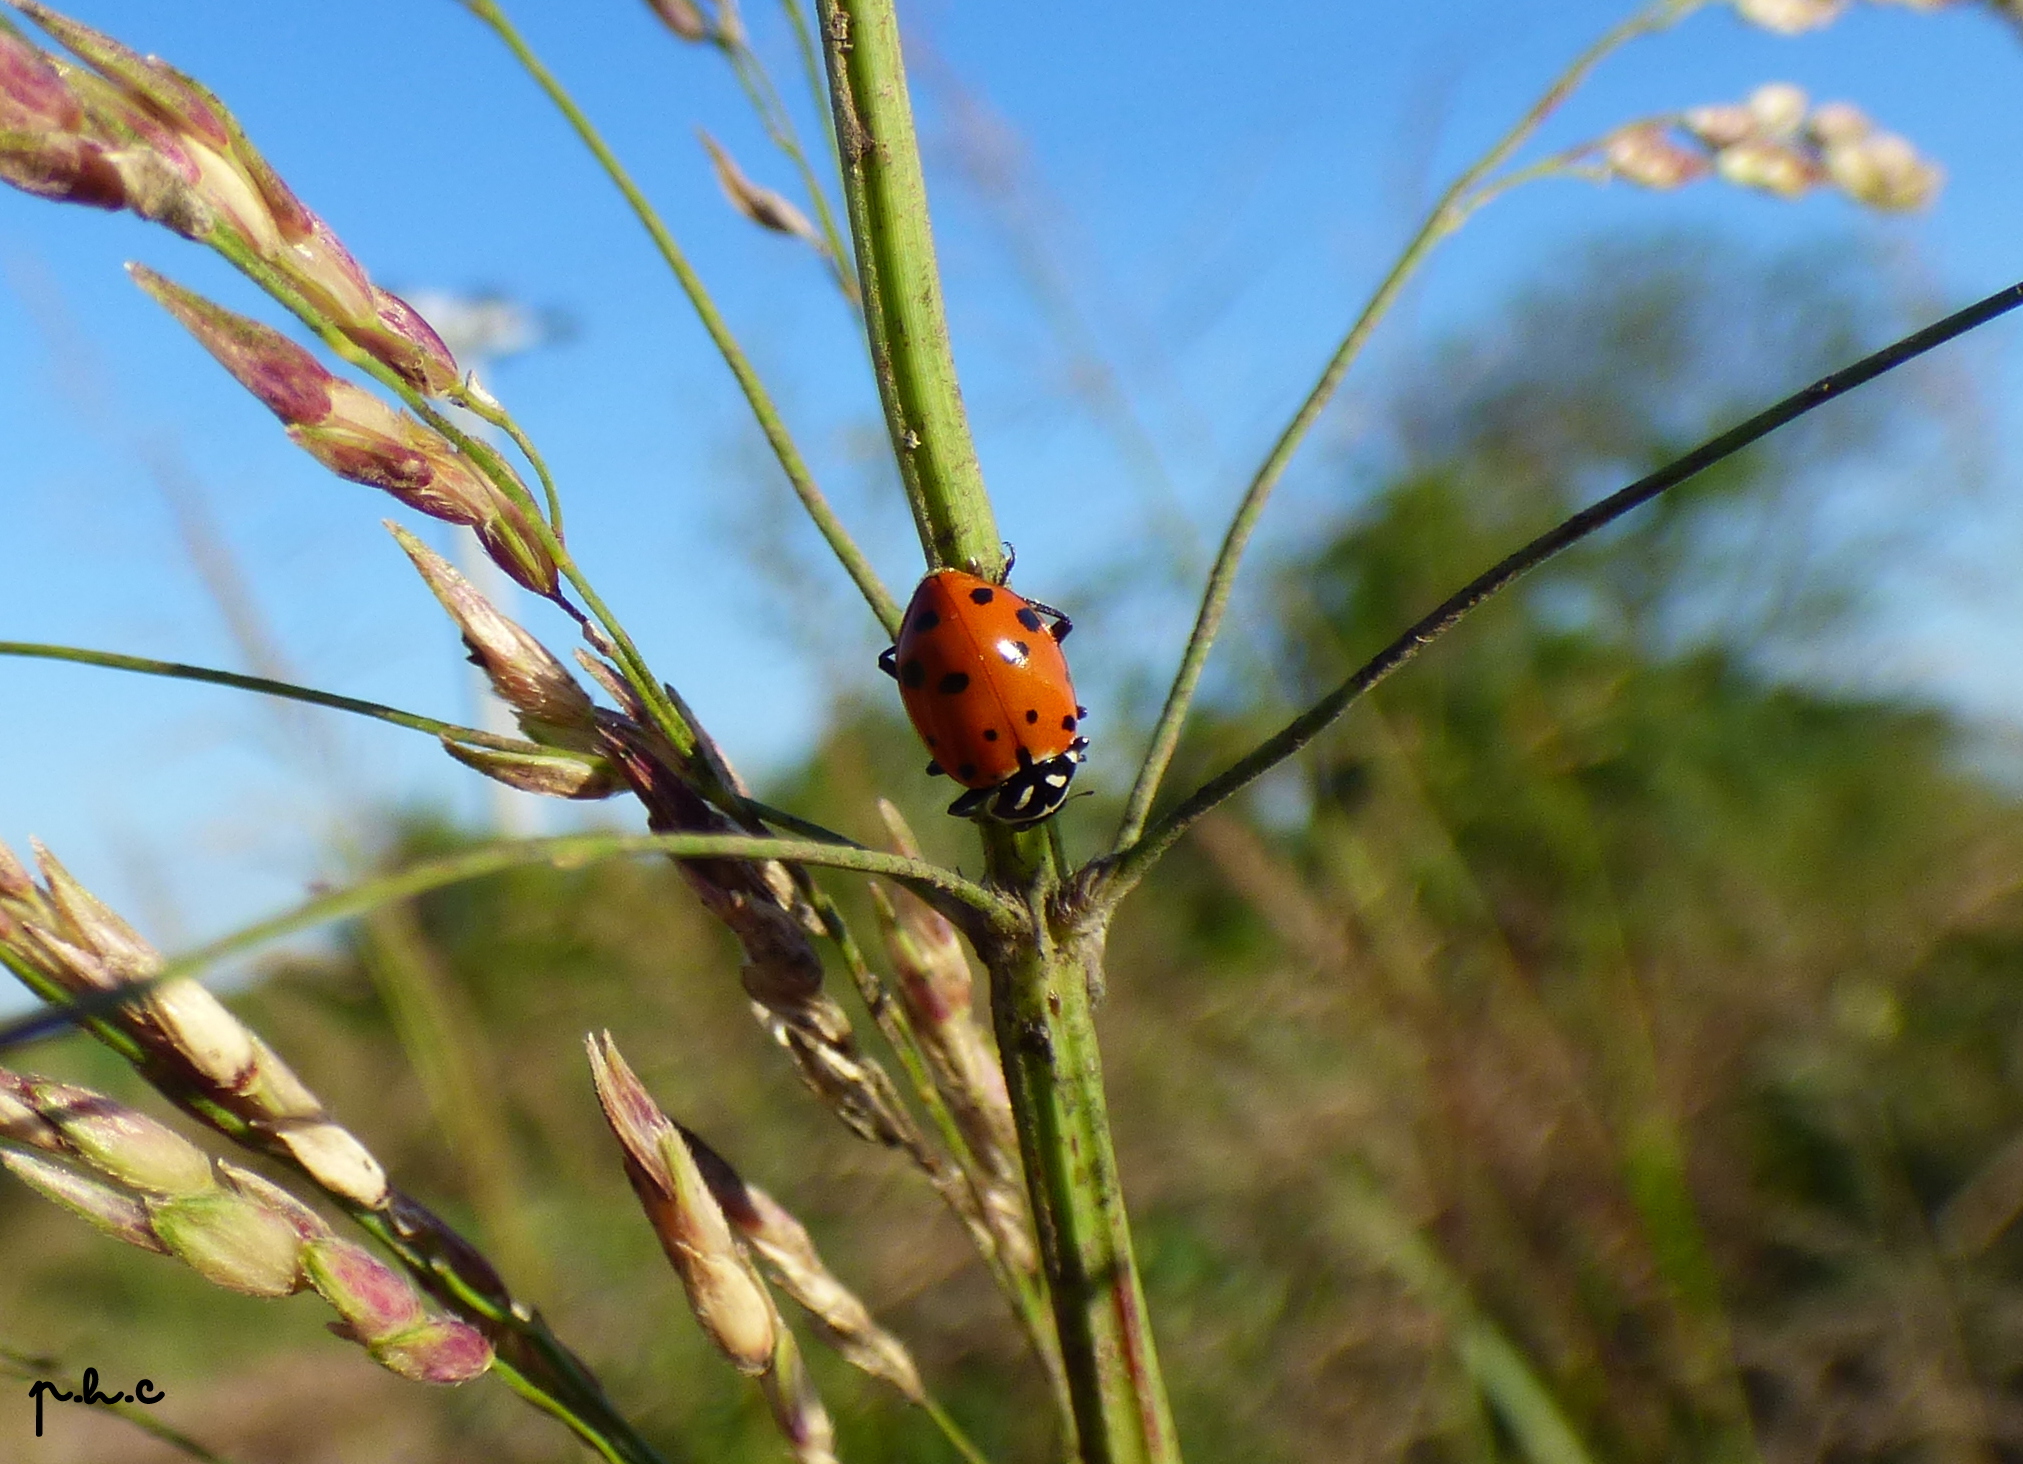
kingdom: Animalia
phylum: Arthropoda
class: Insecta
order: Coleoptera
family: Coccinellidae
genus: Hippodamia
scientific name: Hippodamia convergens
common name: Convergent lady beetle
